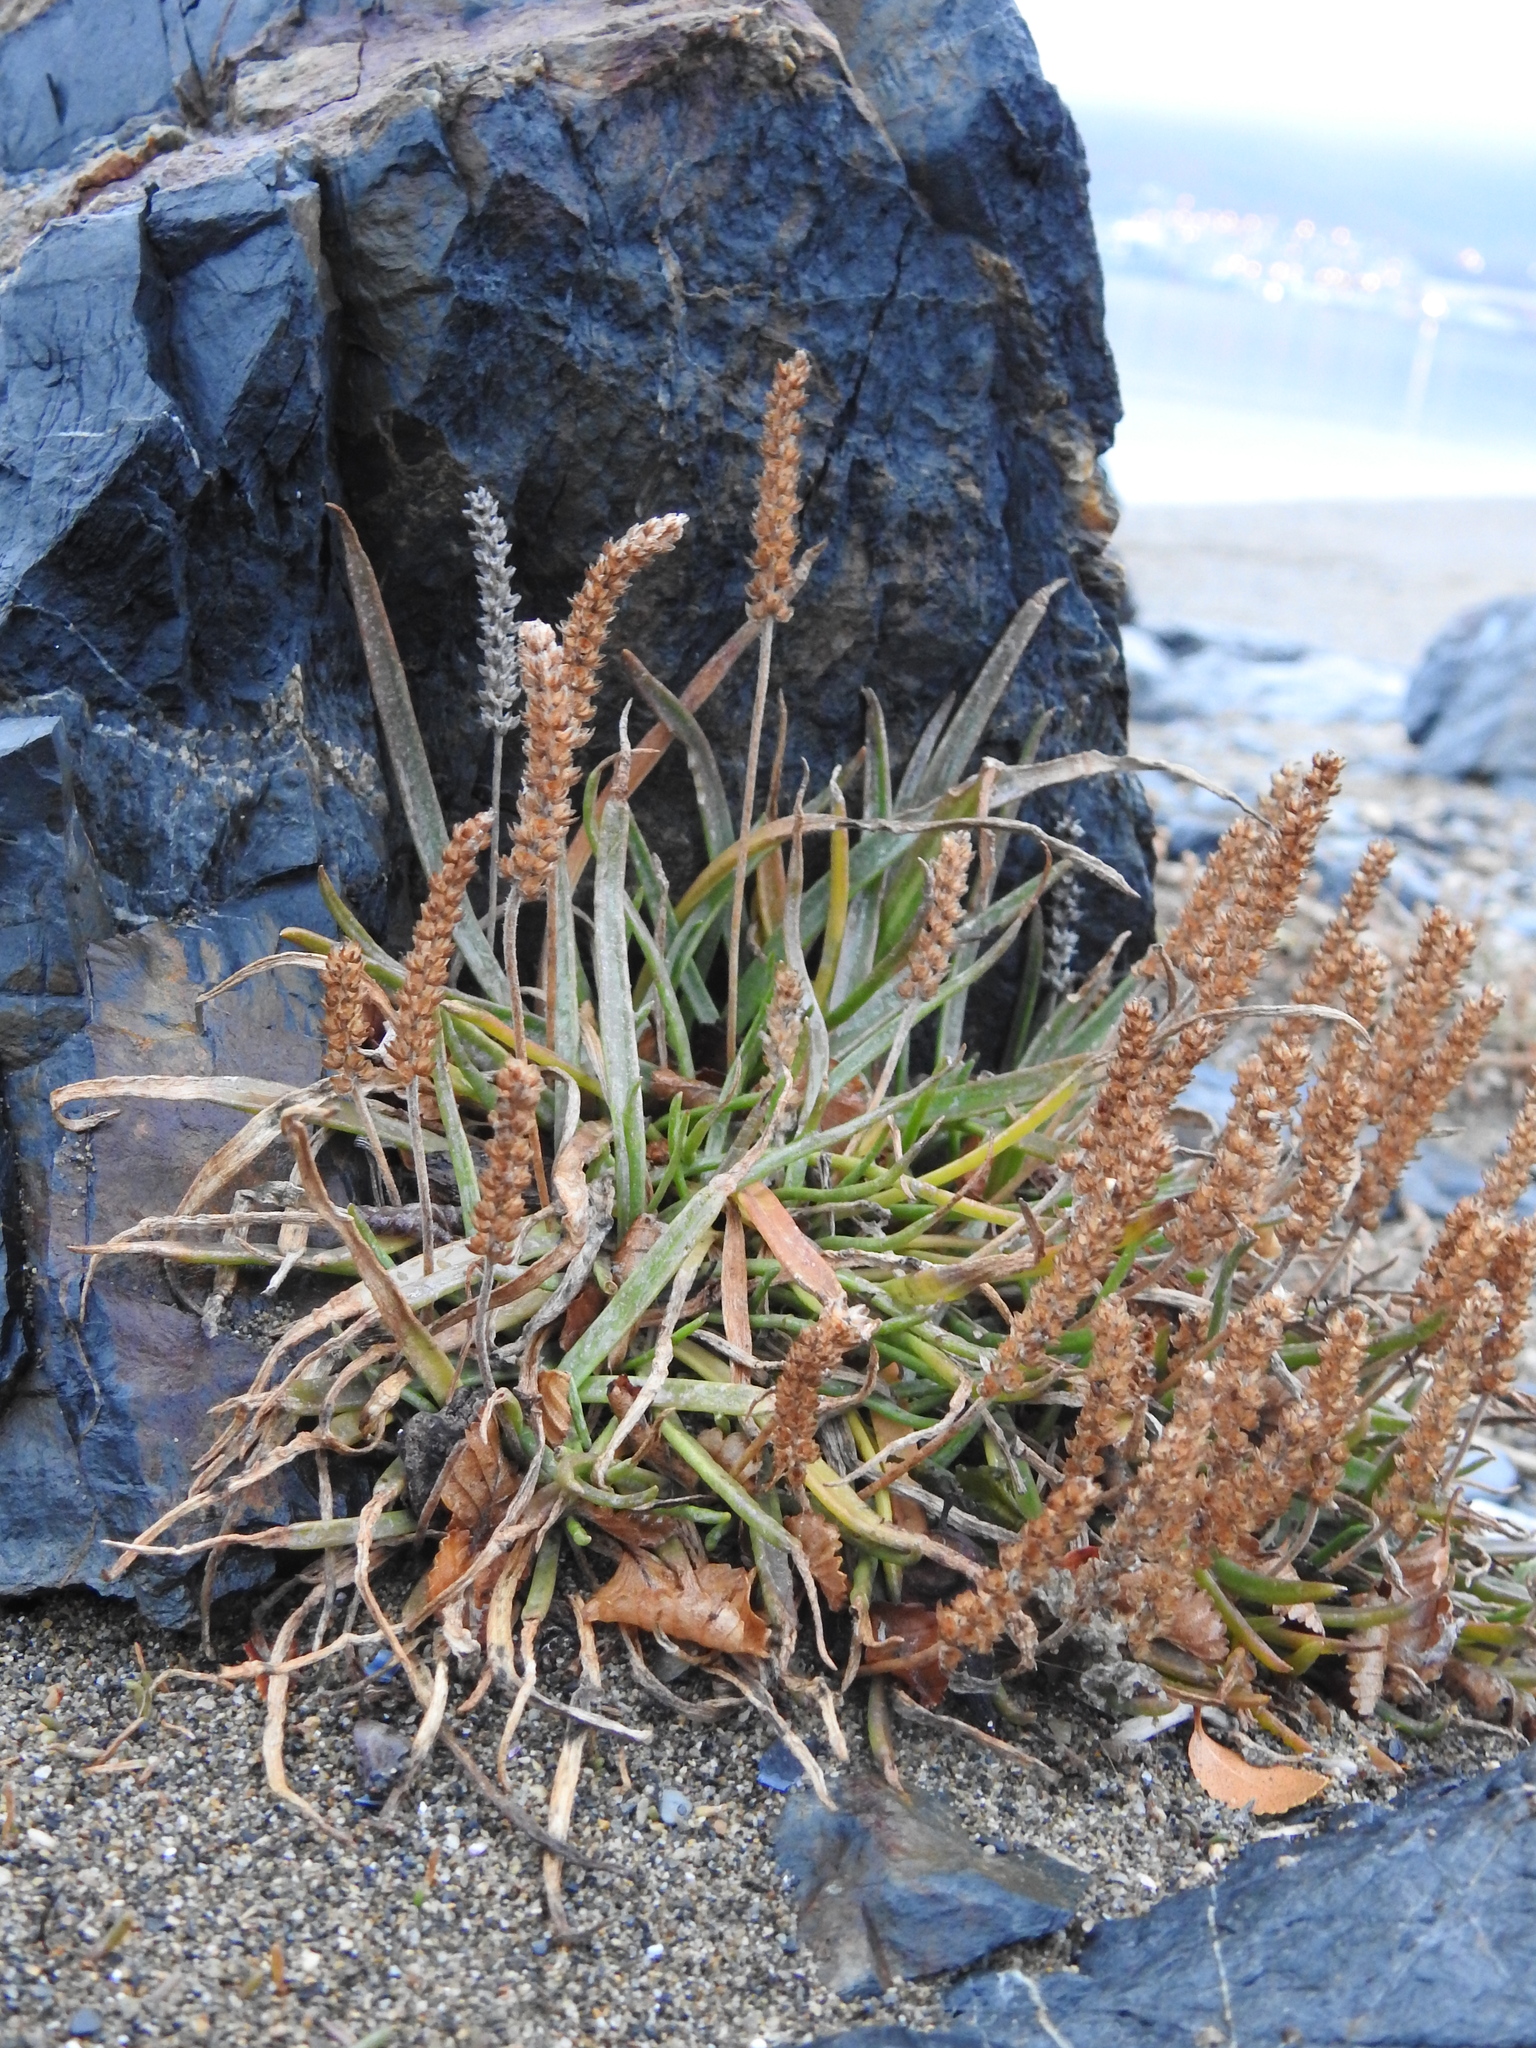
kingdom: Plantae
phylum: Tracheophyta
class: Magnoliopsida
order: Lamiales
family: Plantaginaceae
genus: Plantago
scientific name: Plantago maritima
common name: Sea plantain
